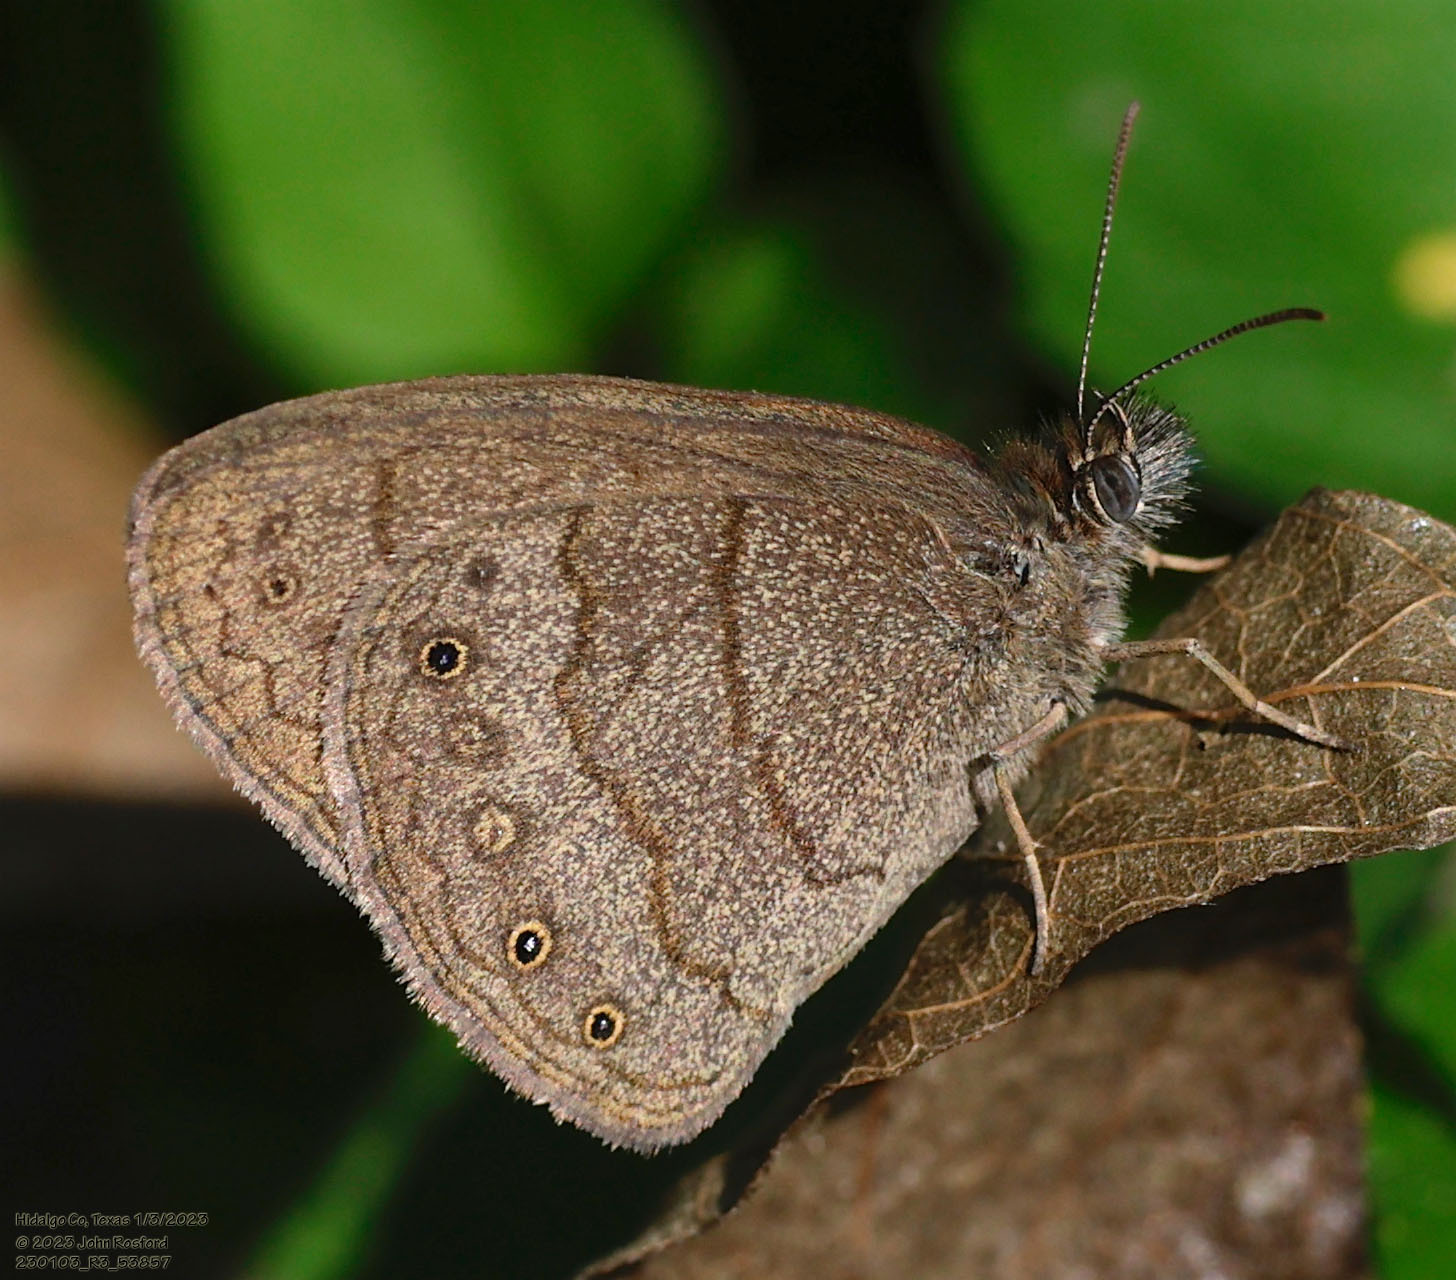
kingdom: Animalia
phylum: Arthropoda
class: Insecta
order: Lepidoptera
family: Nymphalidae
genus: Hermeuptychia
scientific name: Hermeuptychia hermybius
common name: South texas satyr
